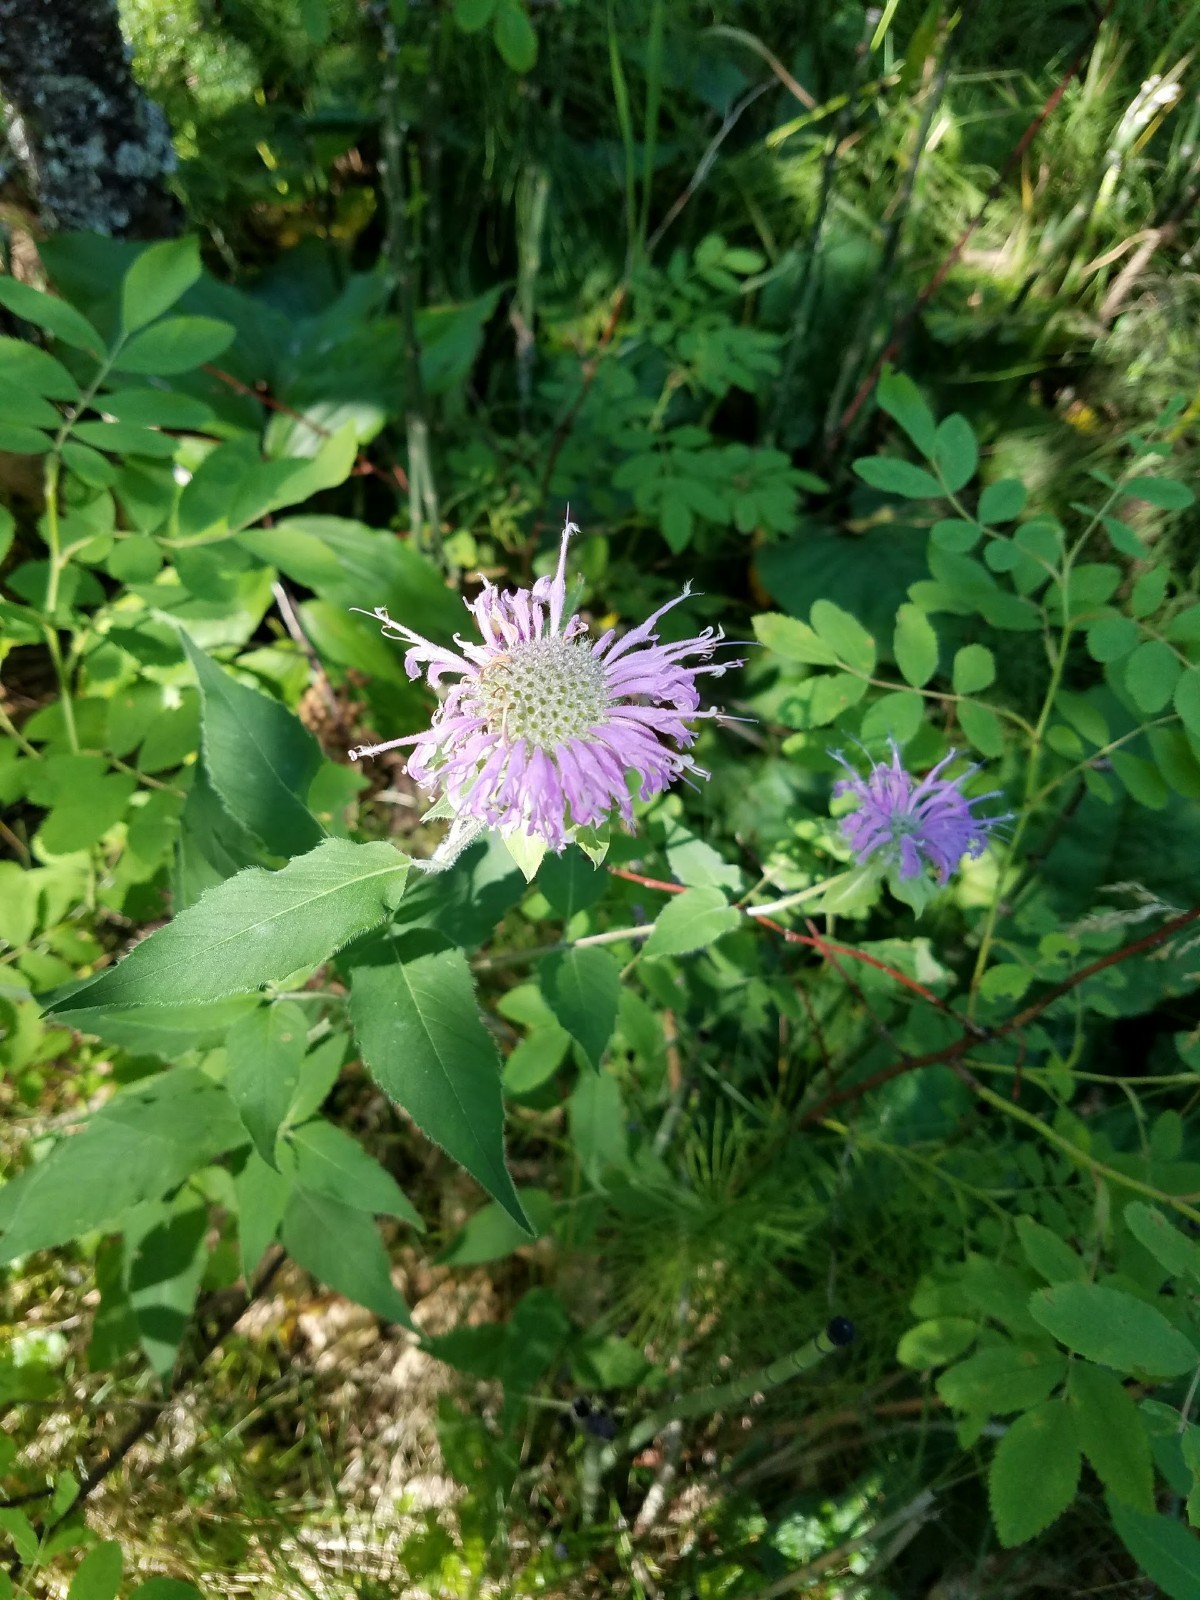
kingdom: Plantae
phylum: Tracheophyta
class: Magnoliopsida
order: Lamiales
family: Lamiaceae
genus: Monarda
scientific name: Monarda fistulosa
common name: Purple beebalm
